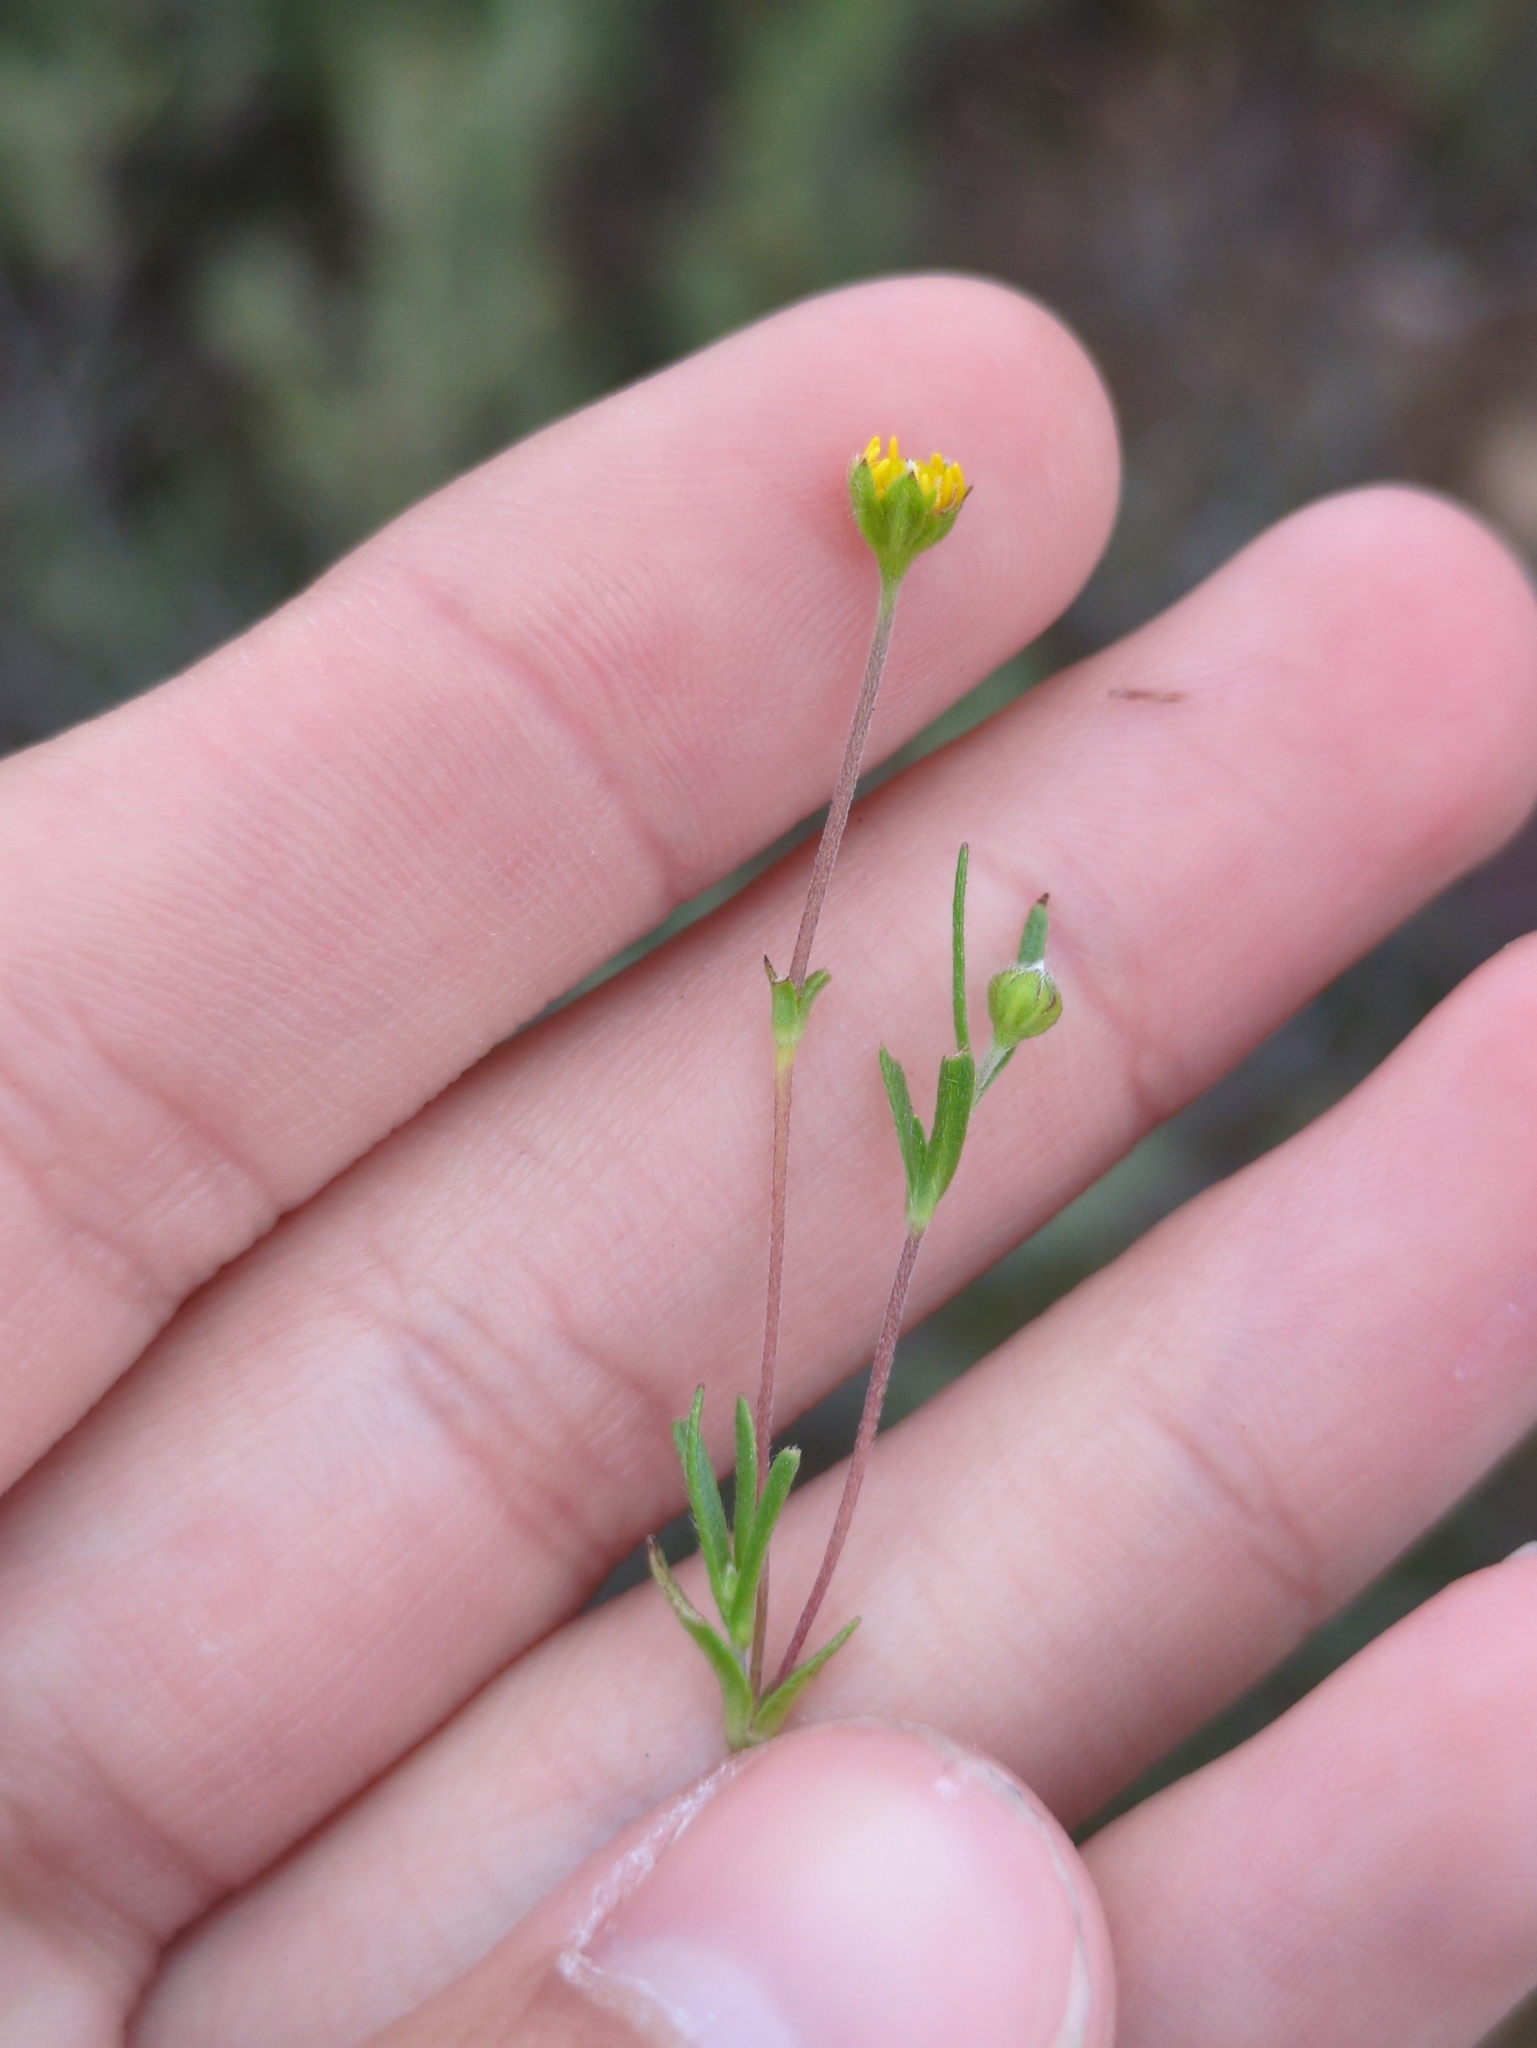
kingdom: Plantae
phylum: Tracheophyta
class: Magnoliopsida
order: Asterales
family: Asteraceae
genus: Lasthenia
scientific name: Lasthenia gracilis
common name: Common goldfields
